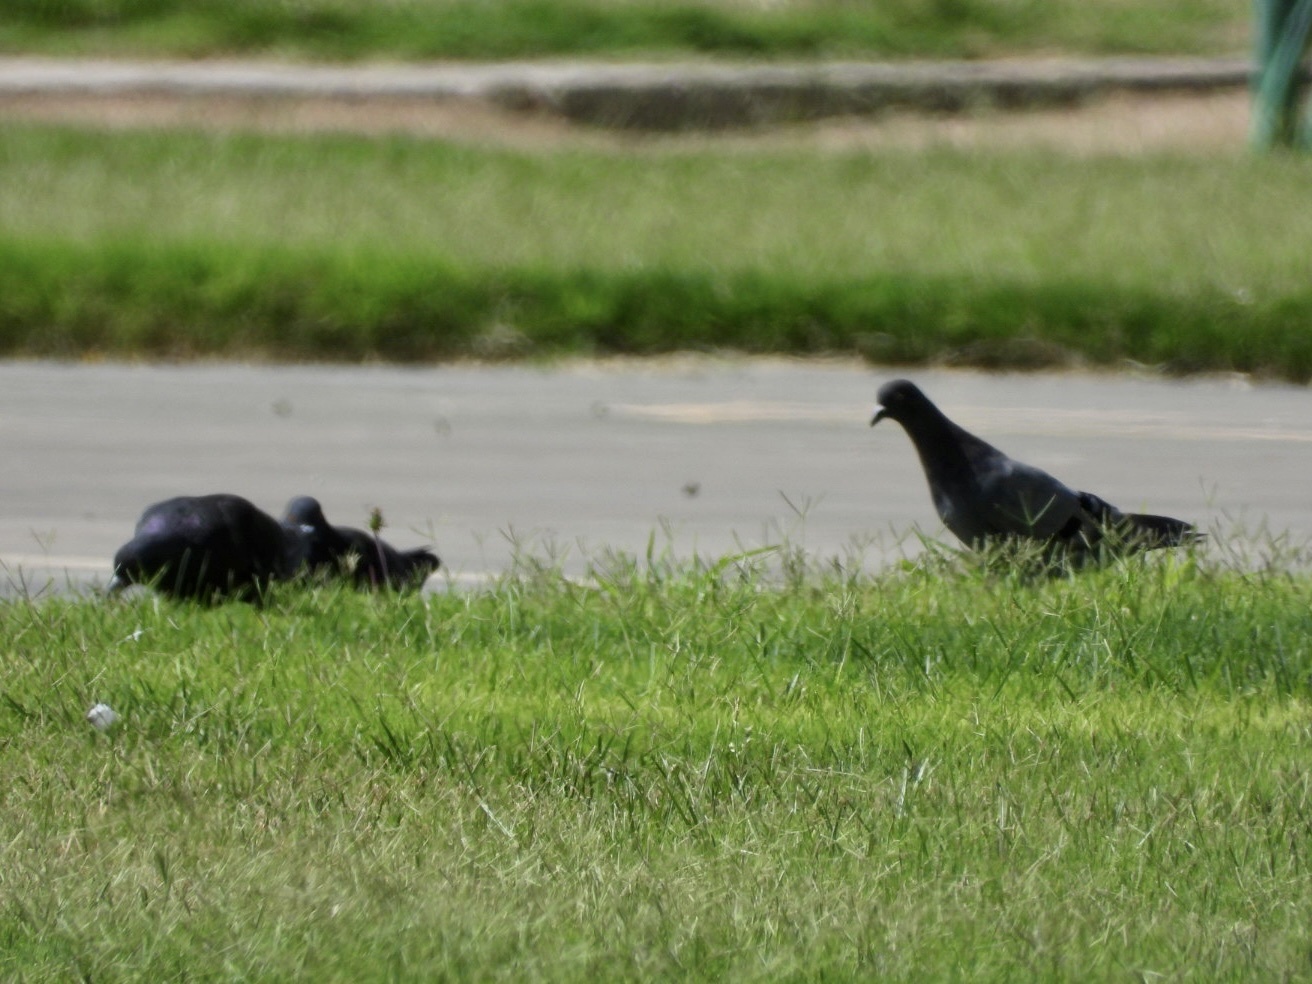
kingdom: Animalia
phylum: Chordata
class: Aves
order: Columbiformes
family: Columbidae
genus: Columba
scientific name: Columba livia
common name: Rock pigeon
